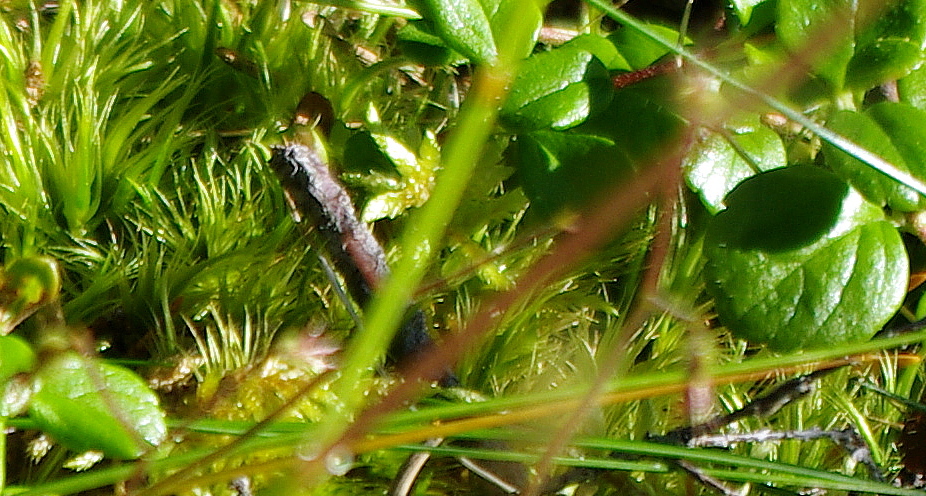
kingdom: Plantae
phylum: Bryophyta
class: Bryopsida
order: Dicranales
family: Dicranaceae
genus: Dicranum
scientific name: Dicranum
